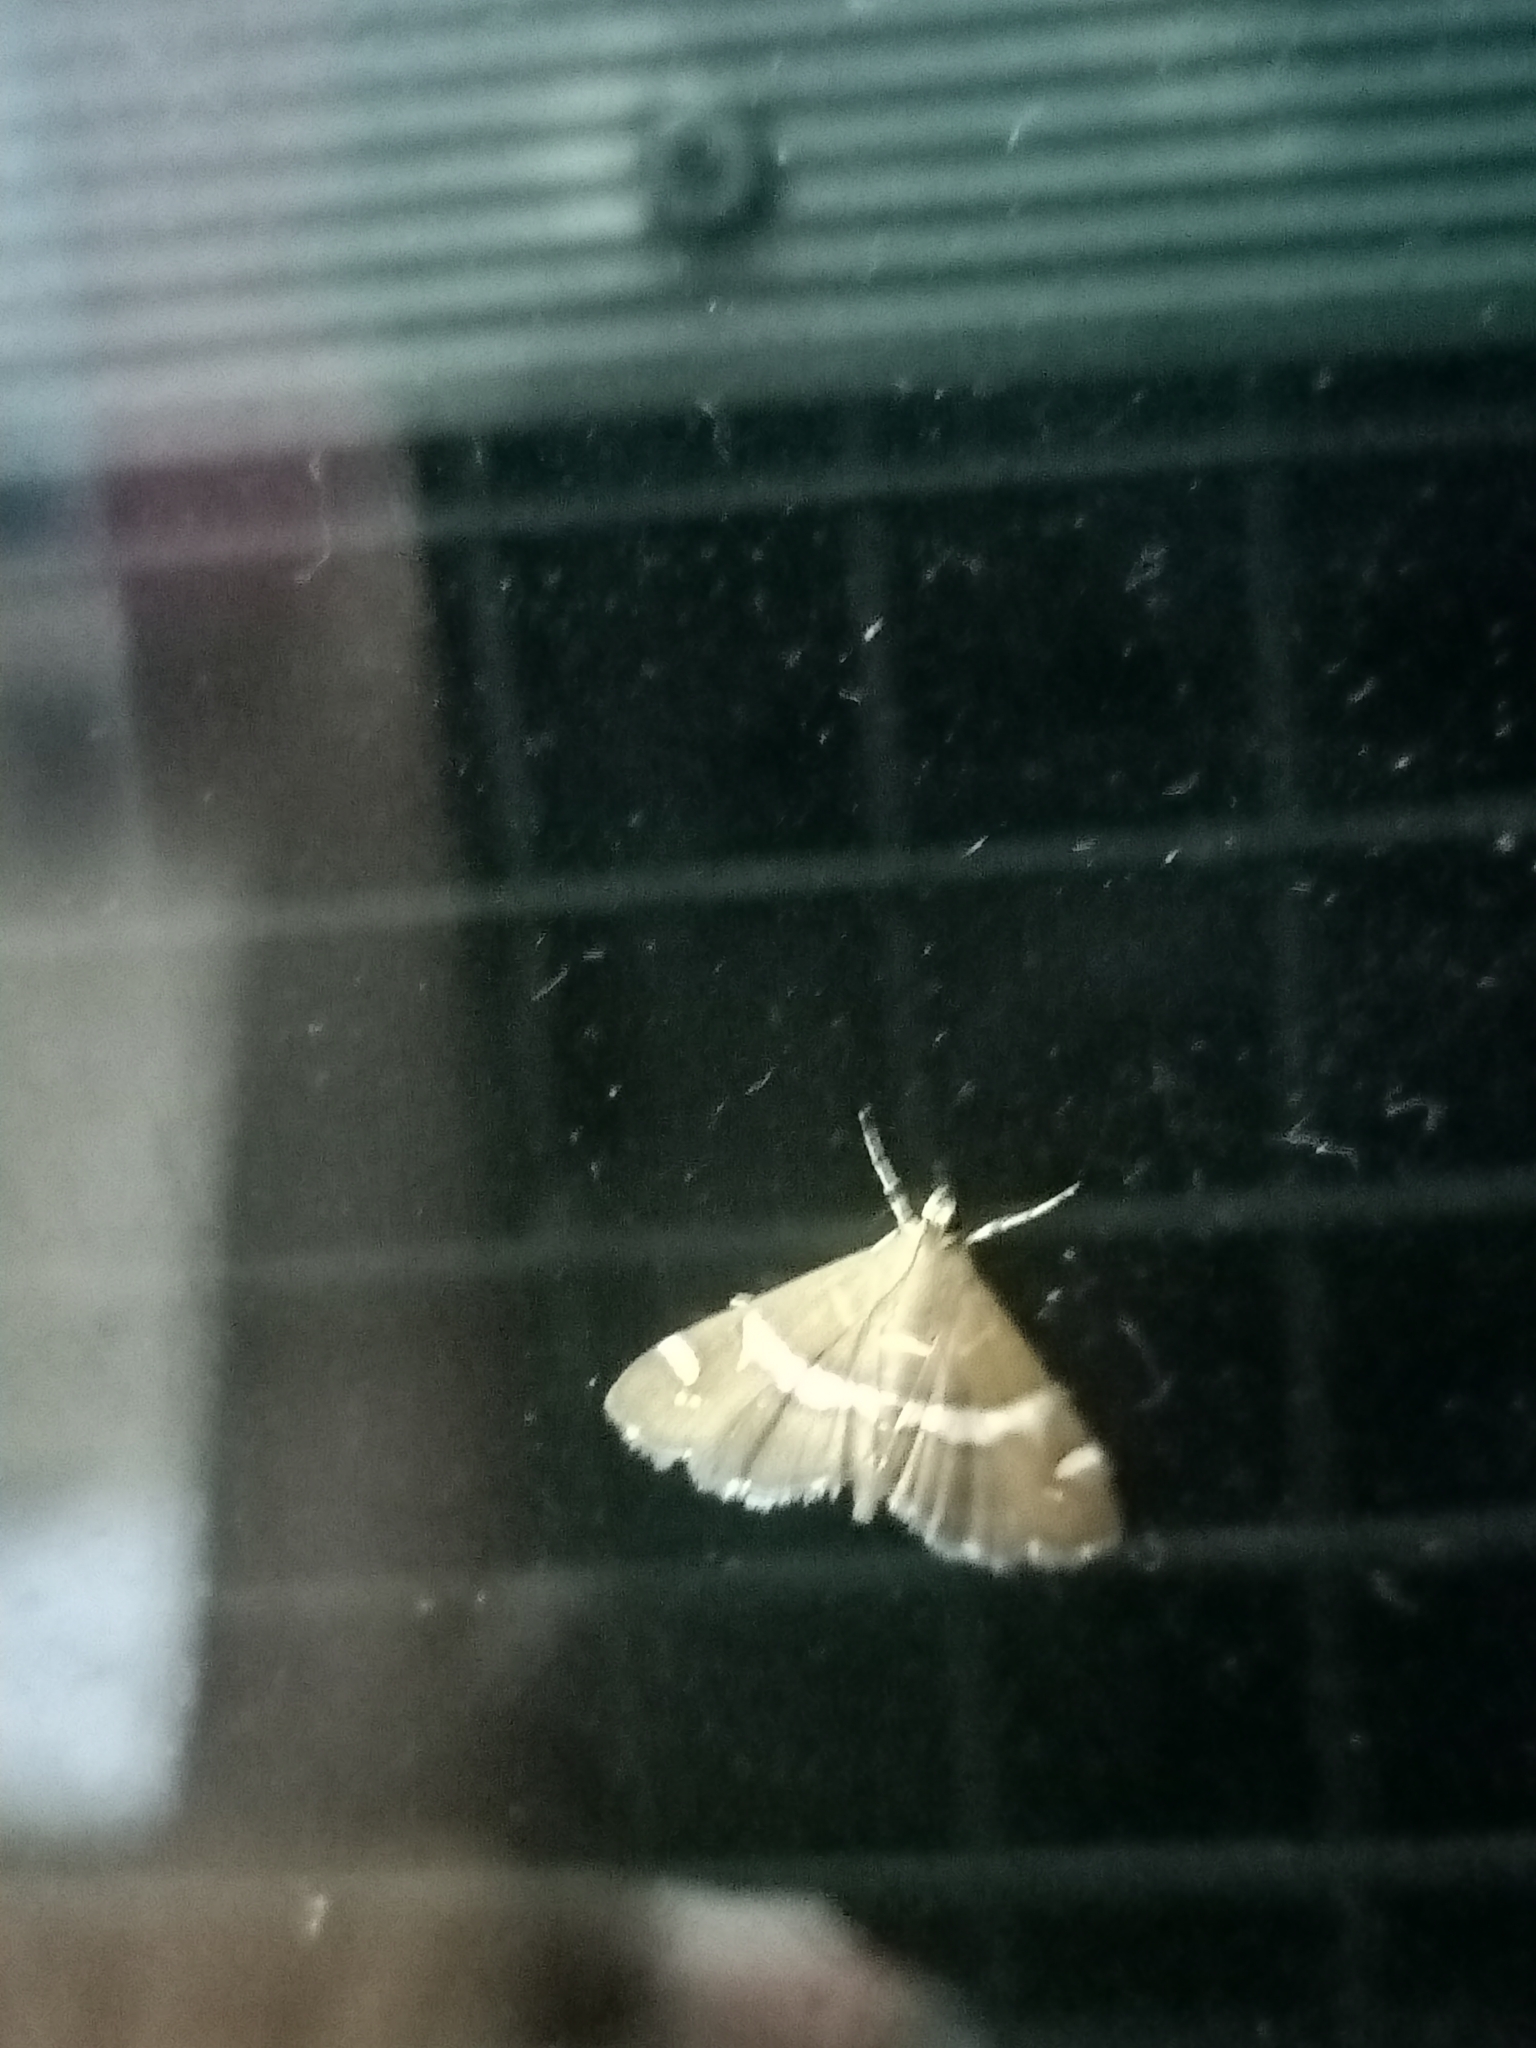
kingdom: Animalia
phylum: Arthropoda
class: Insecta
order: Lepidoptera
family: Crambidae
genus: Spoladea
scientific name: Spoladea recurvalis
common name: Beet webworm moth
